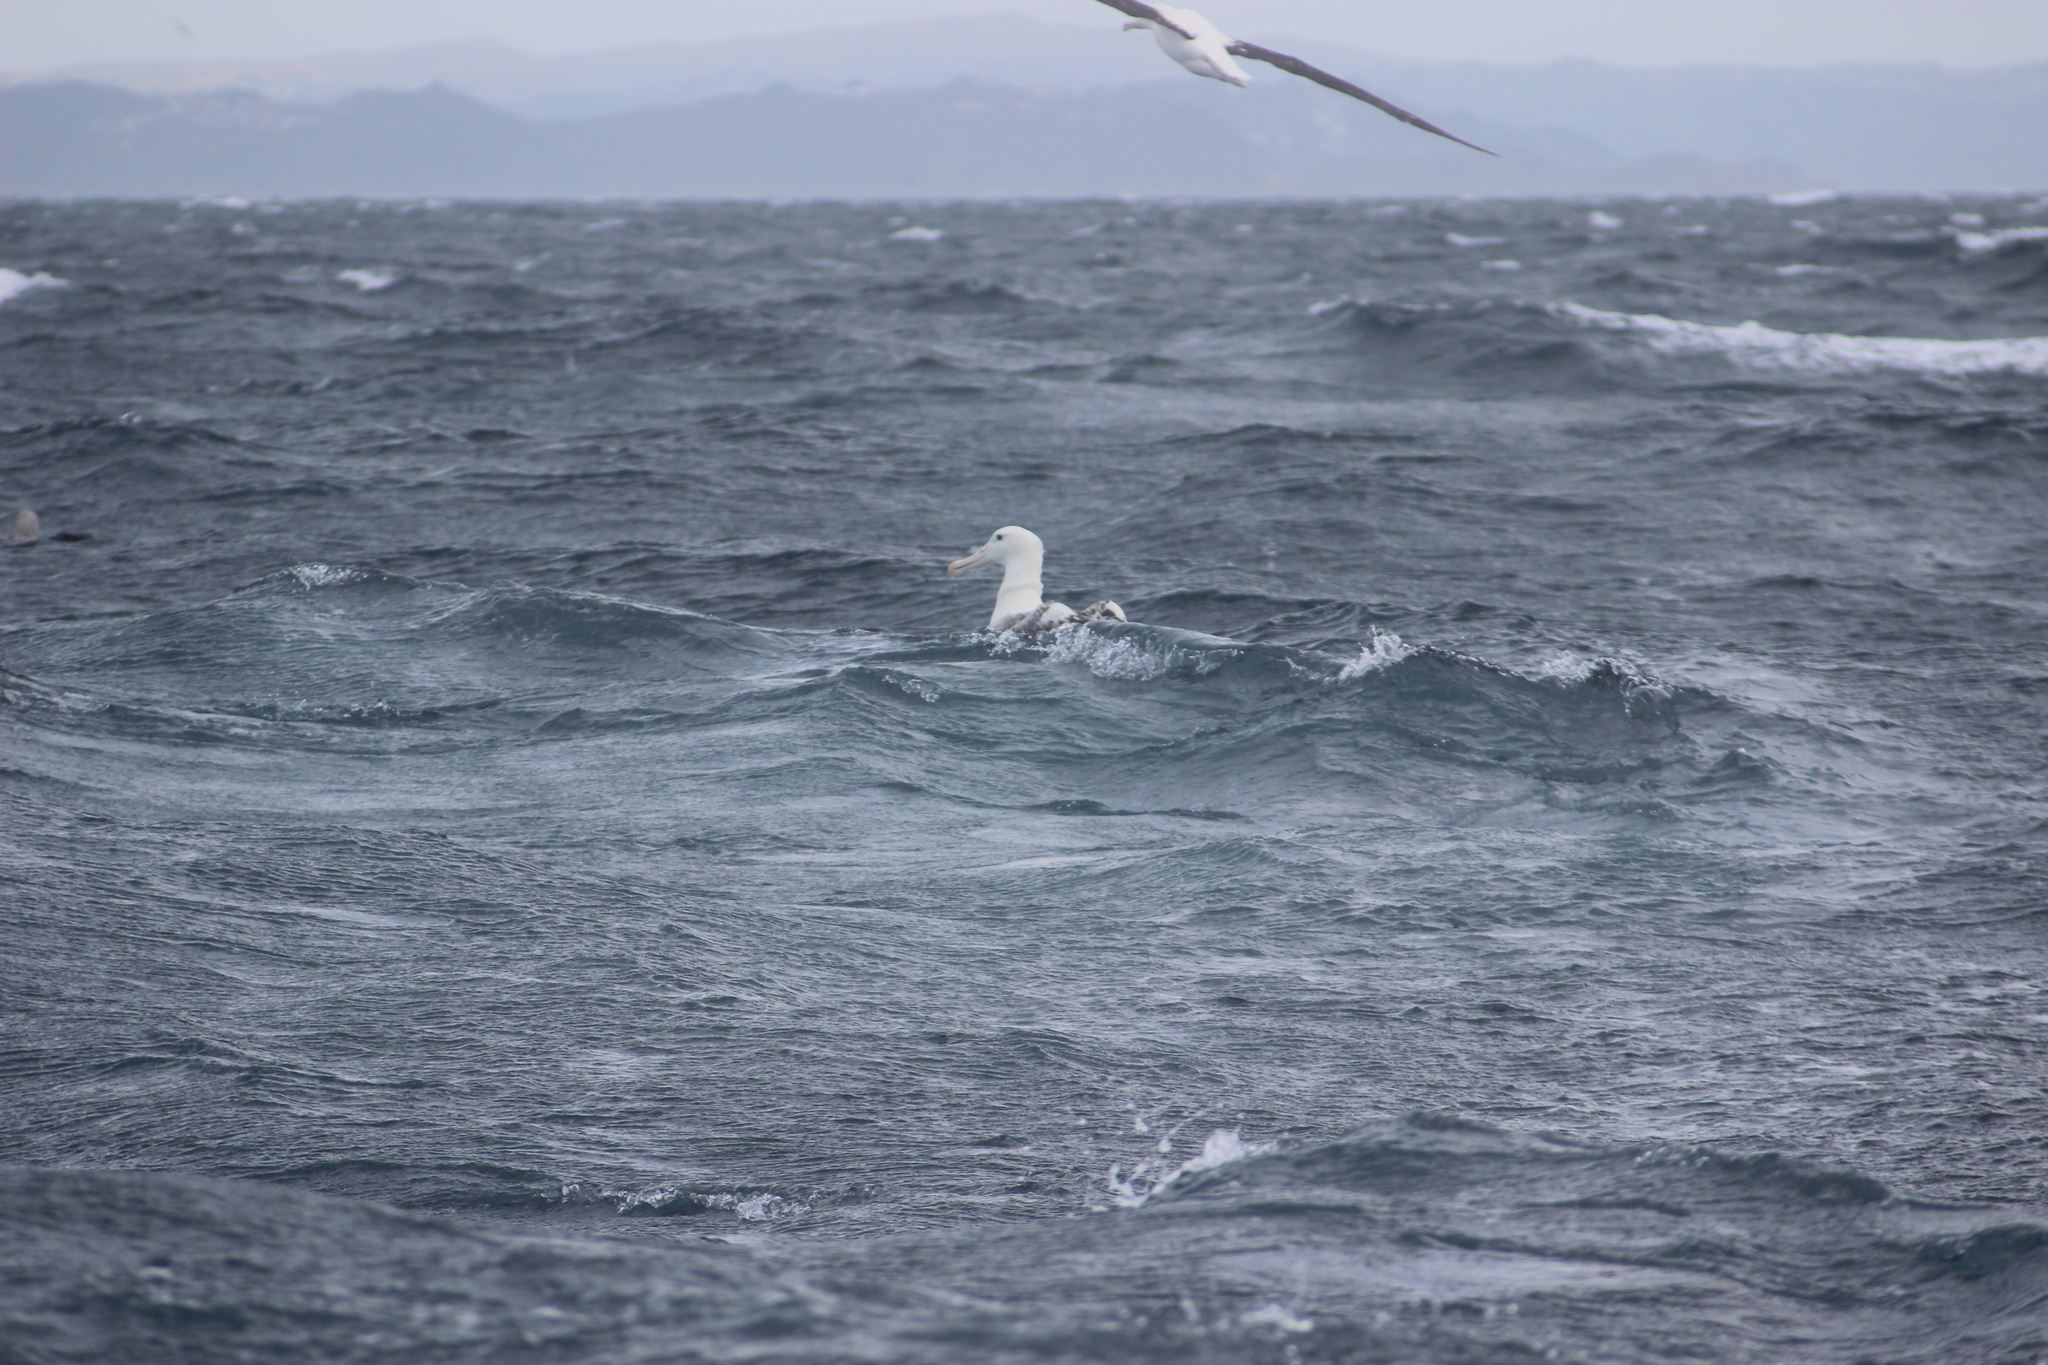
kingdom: Animalia
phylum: Chordata
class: Aves
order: Procellariiformes
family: Diomedeidae
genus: Diomedea
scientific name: Diomedea epomophora
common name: Southern royal albatross
